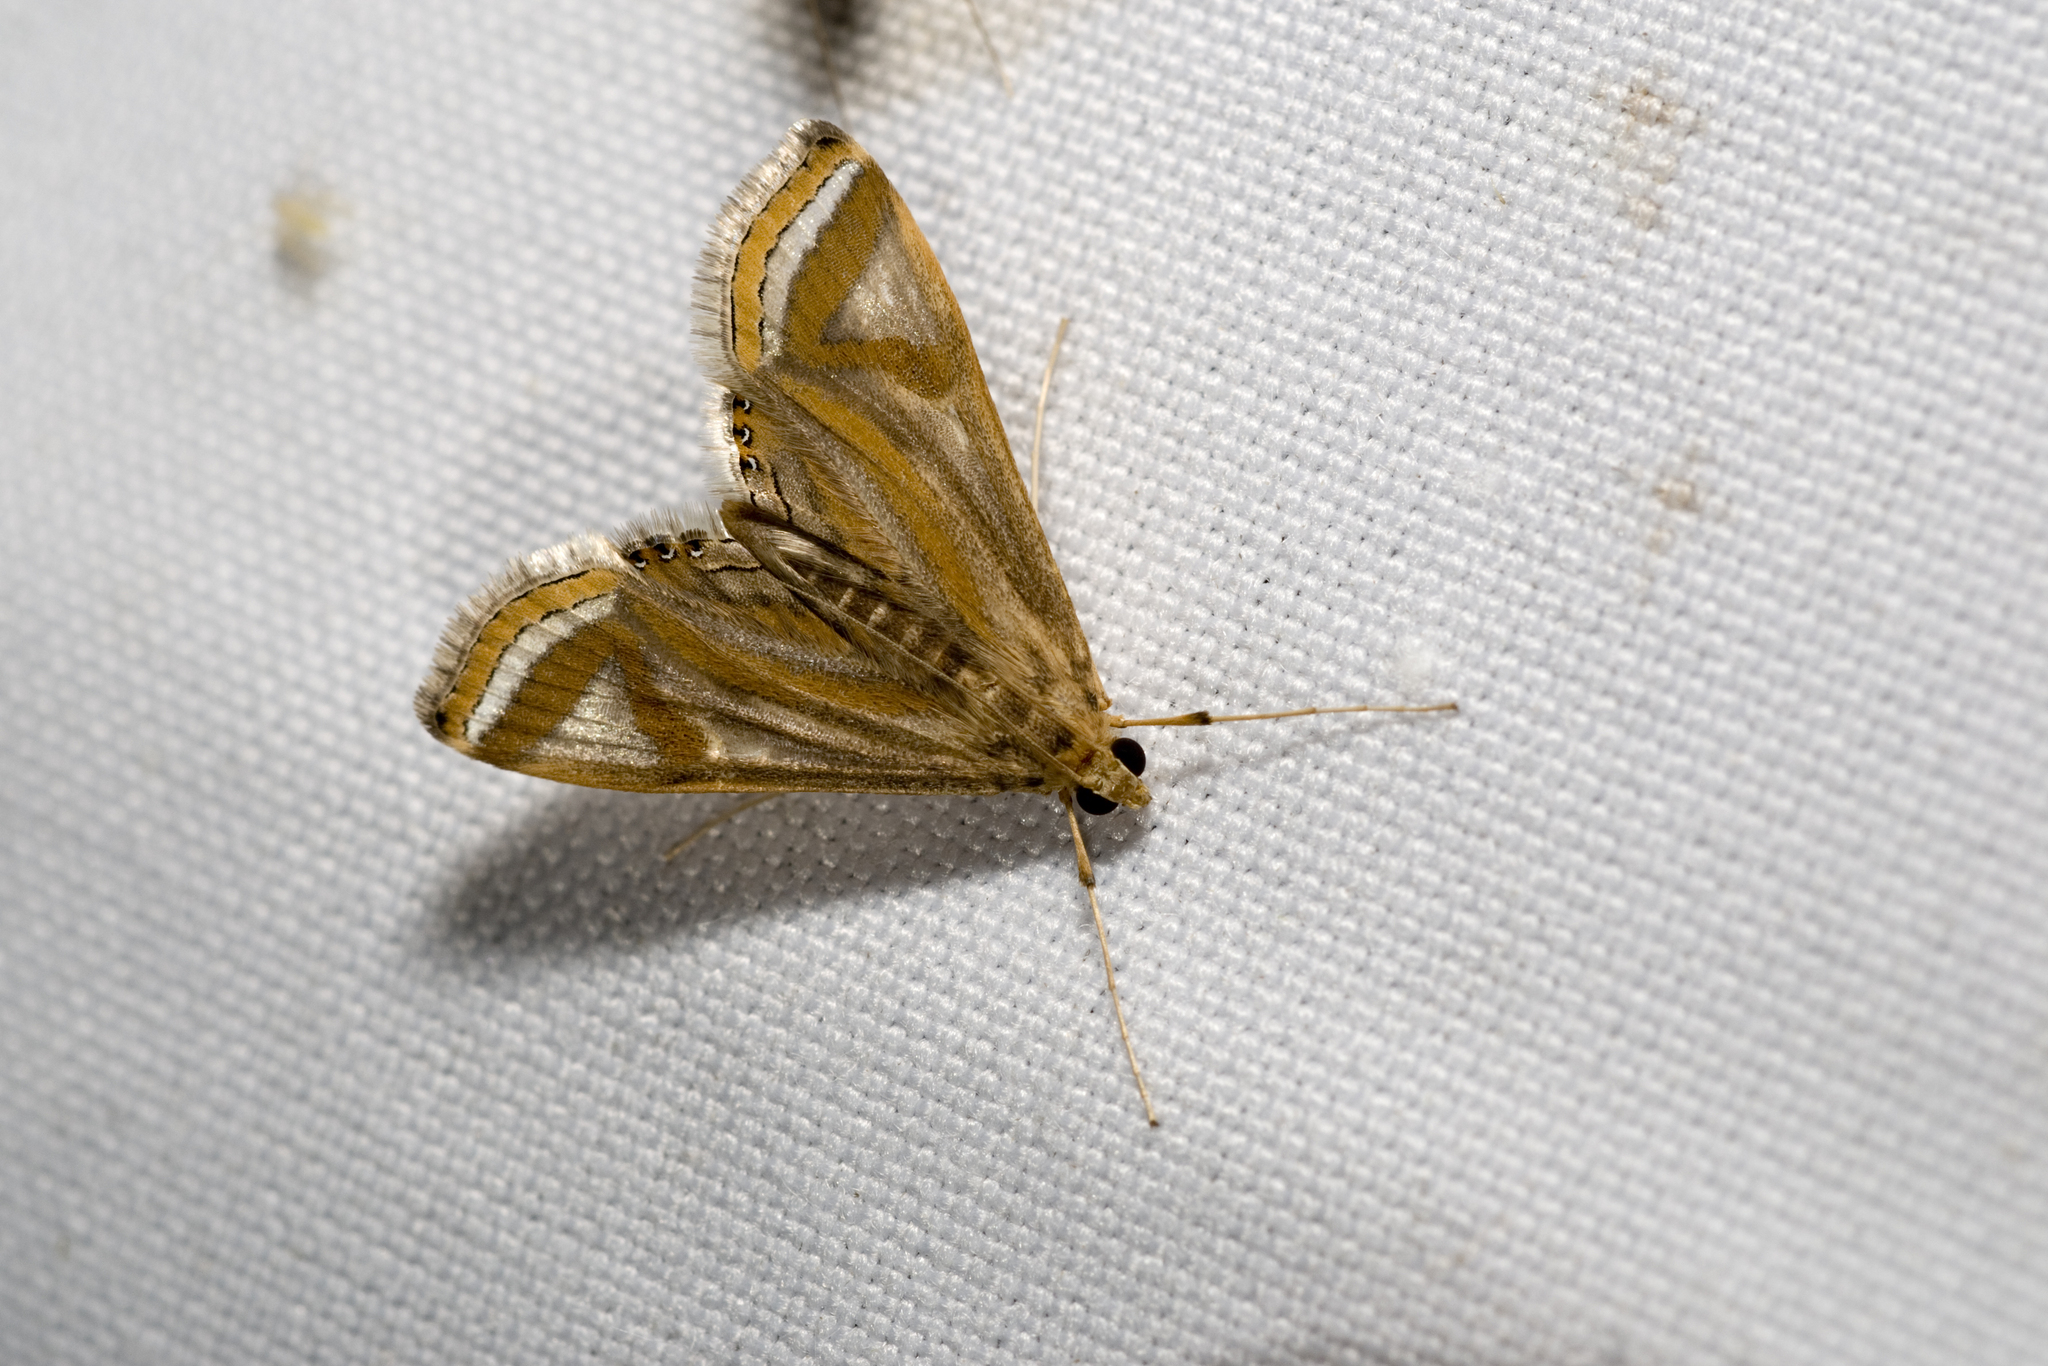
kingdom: Animalia
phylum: Arthropoda
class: Insecta
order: Lepidoptera
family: Crambidae
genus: Eoophyla
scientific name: Eoophyla conjunctalis
